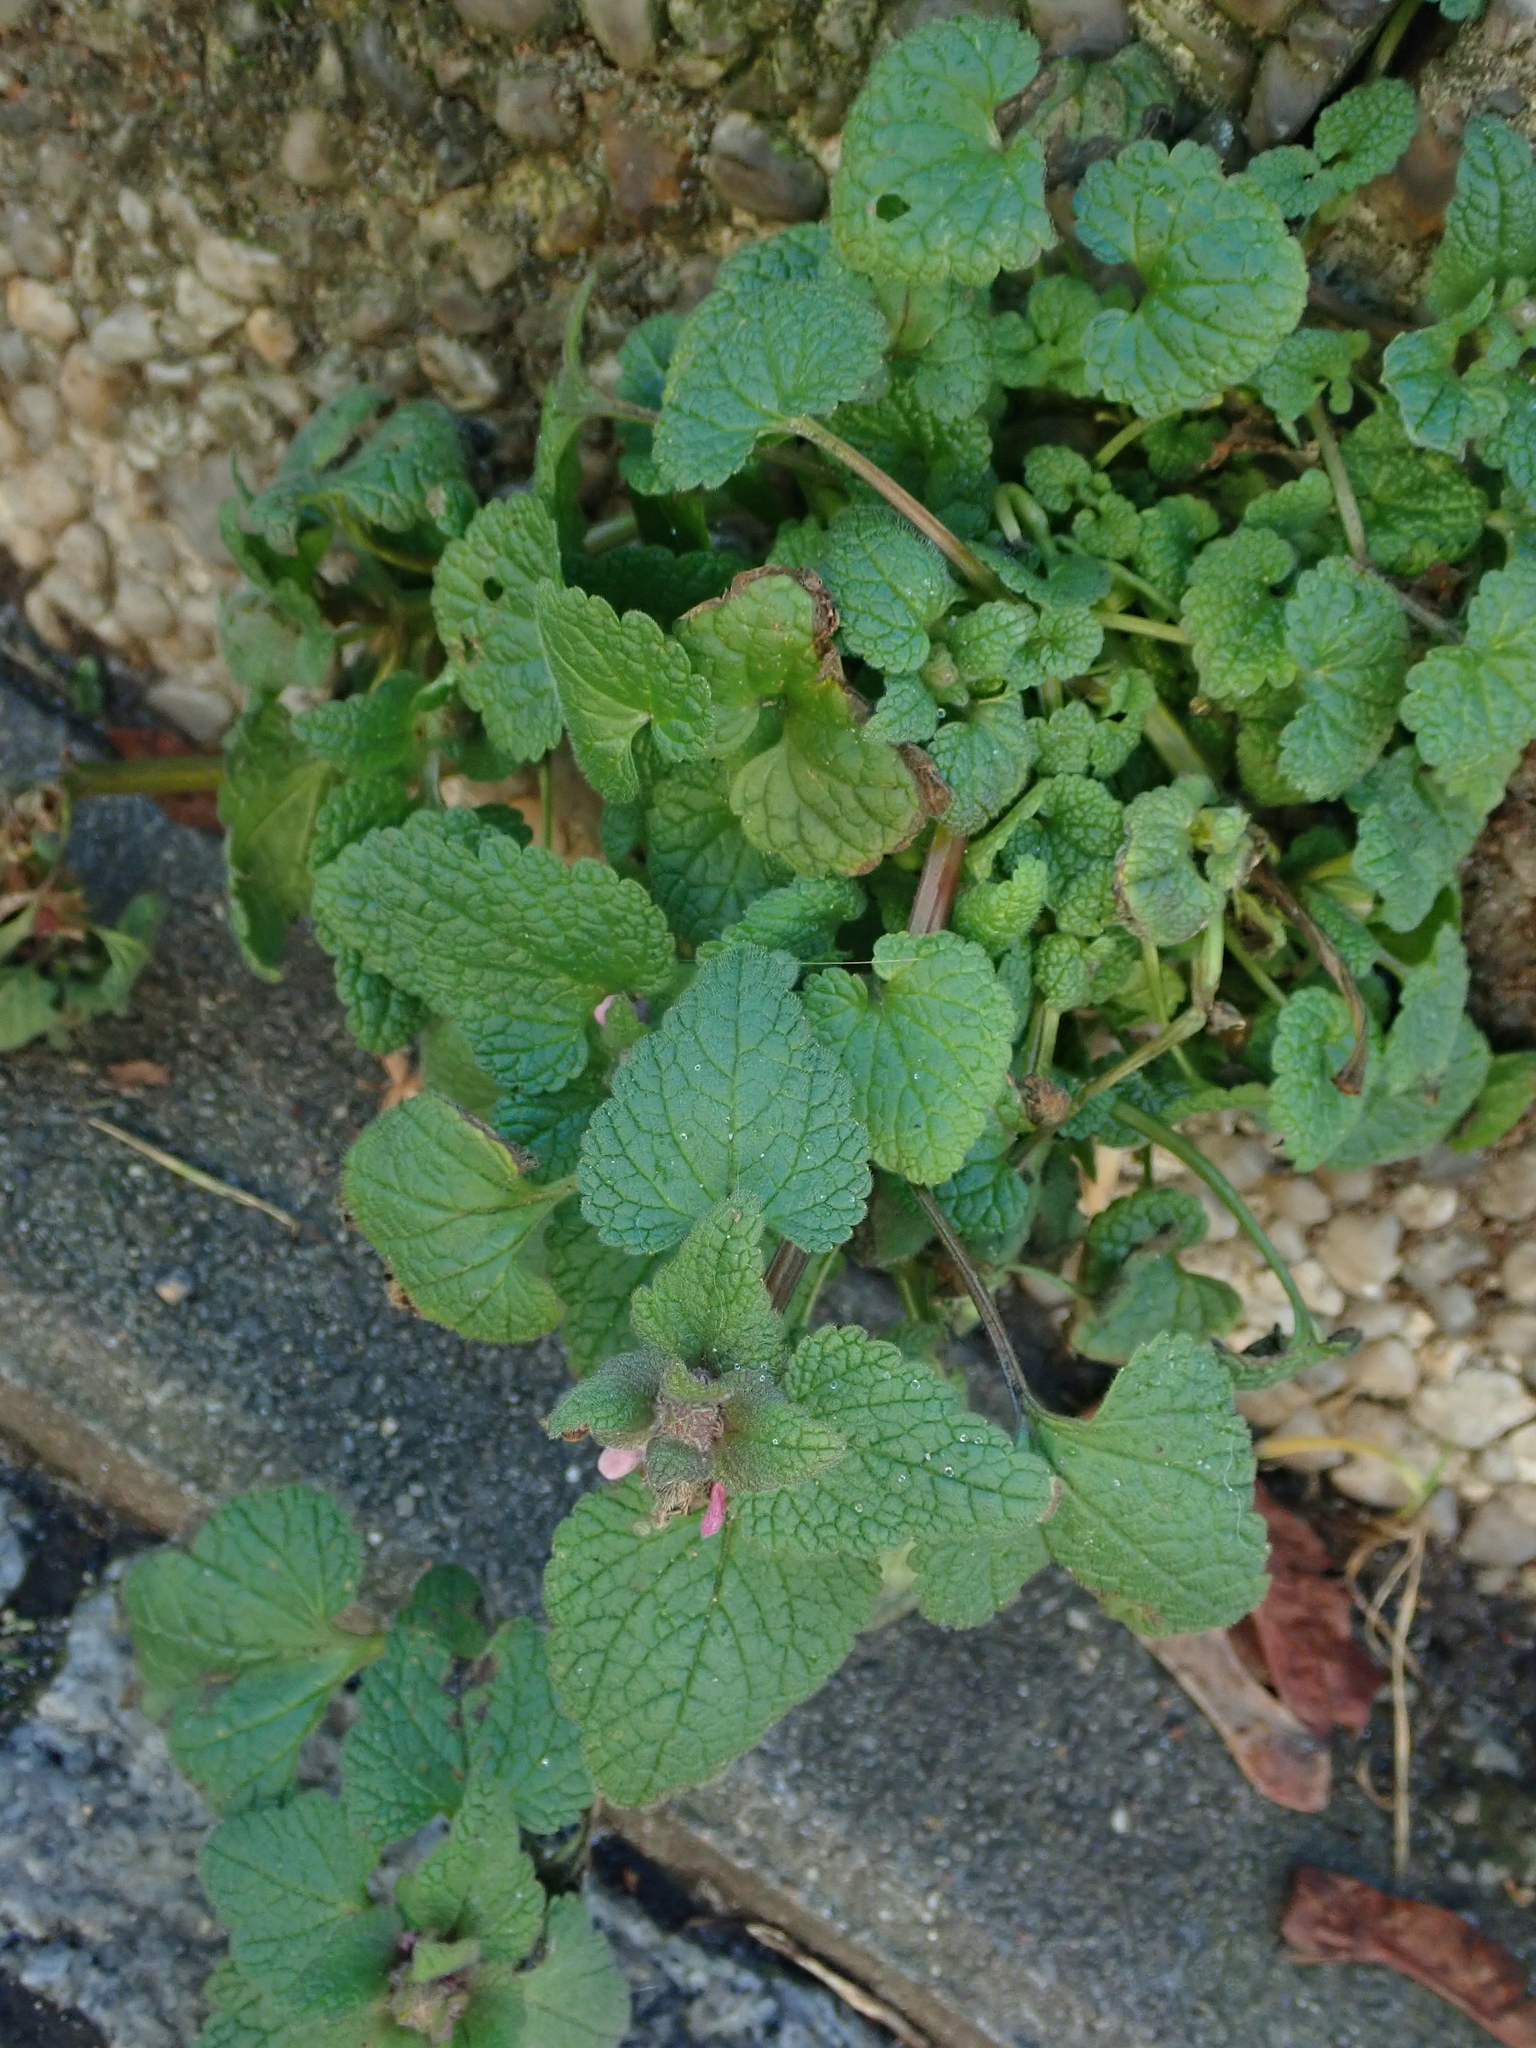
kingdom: Plantae
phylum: Tracheophyta
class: Magnoliopsida
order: Lamiales
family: Lamiaceae
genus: Lamium
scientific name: Lamium purpureum
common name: Red dead-nettle
